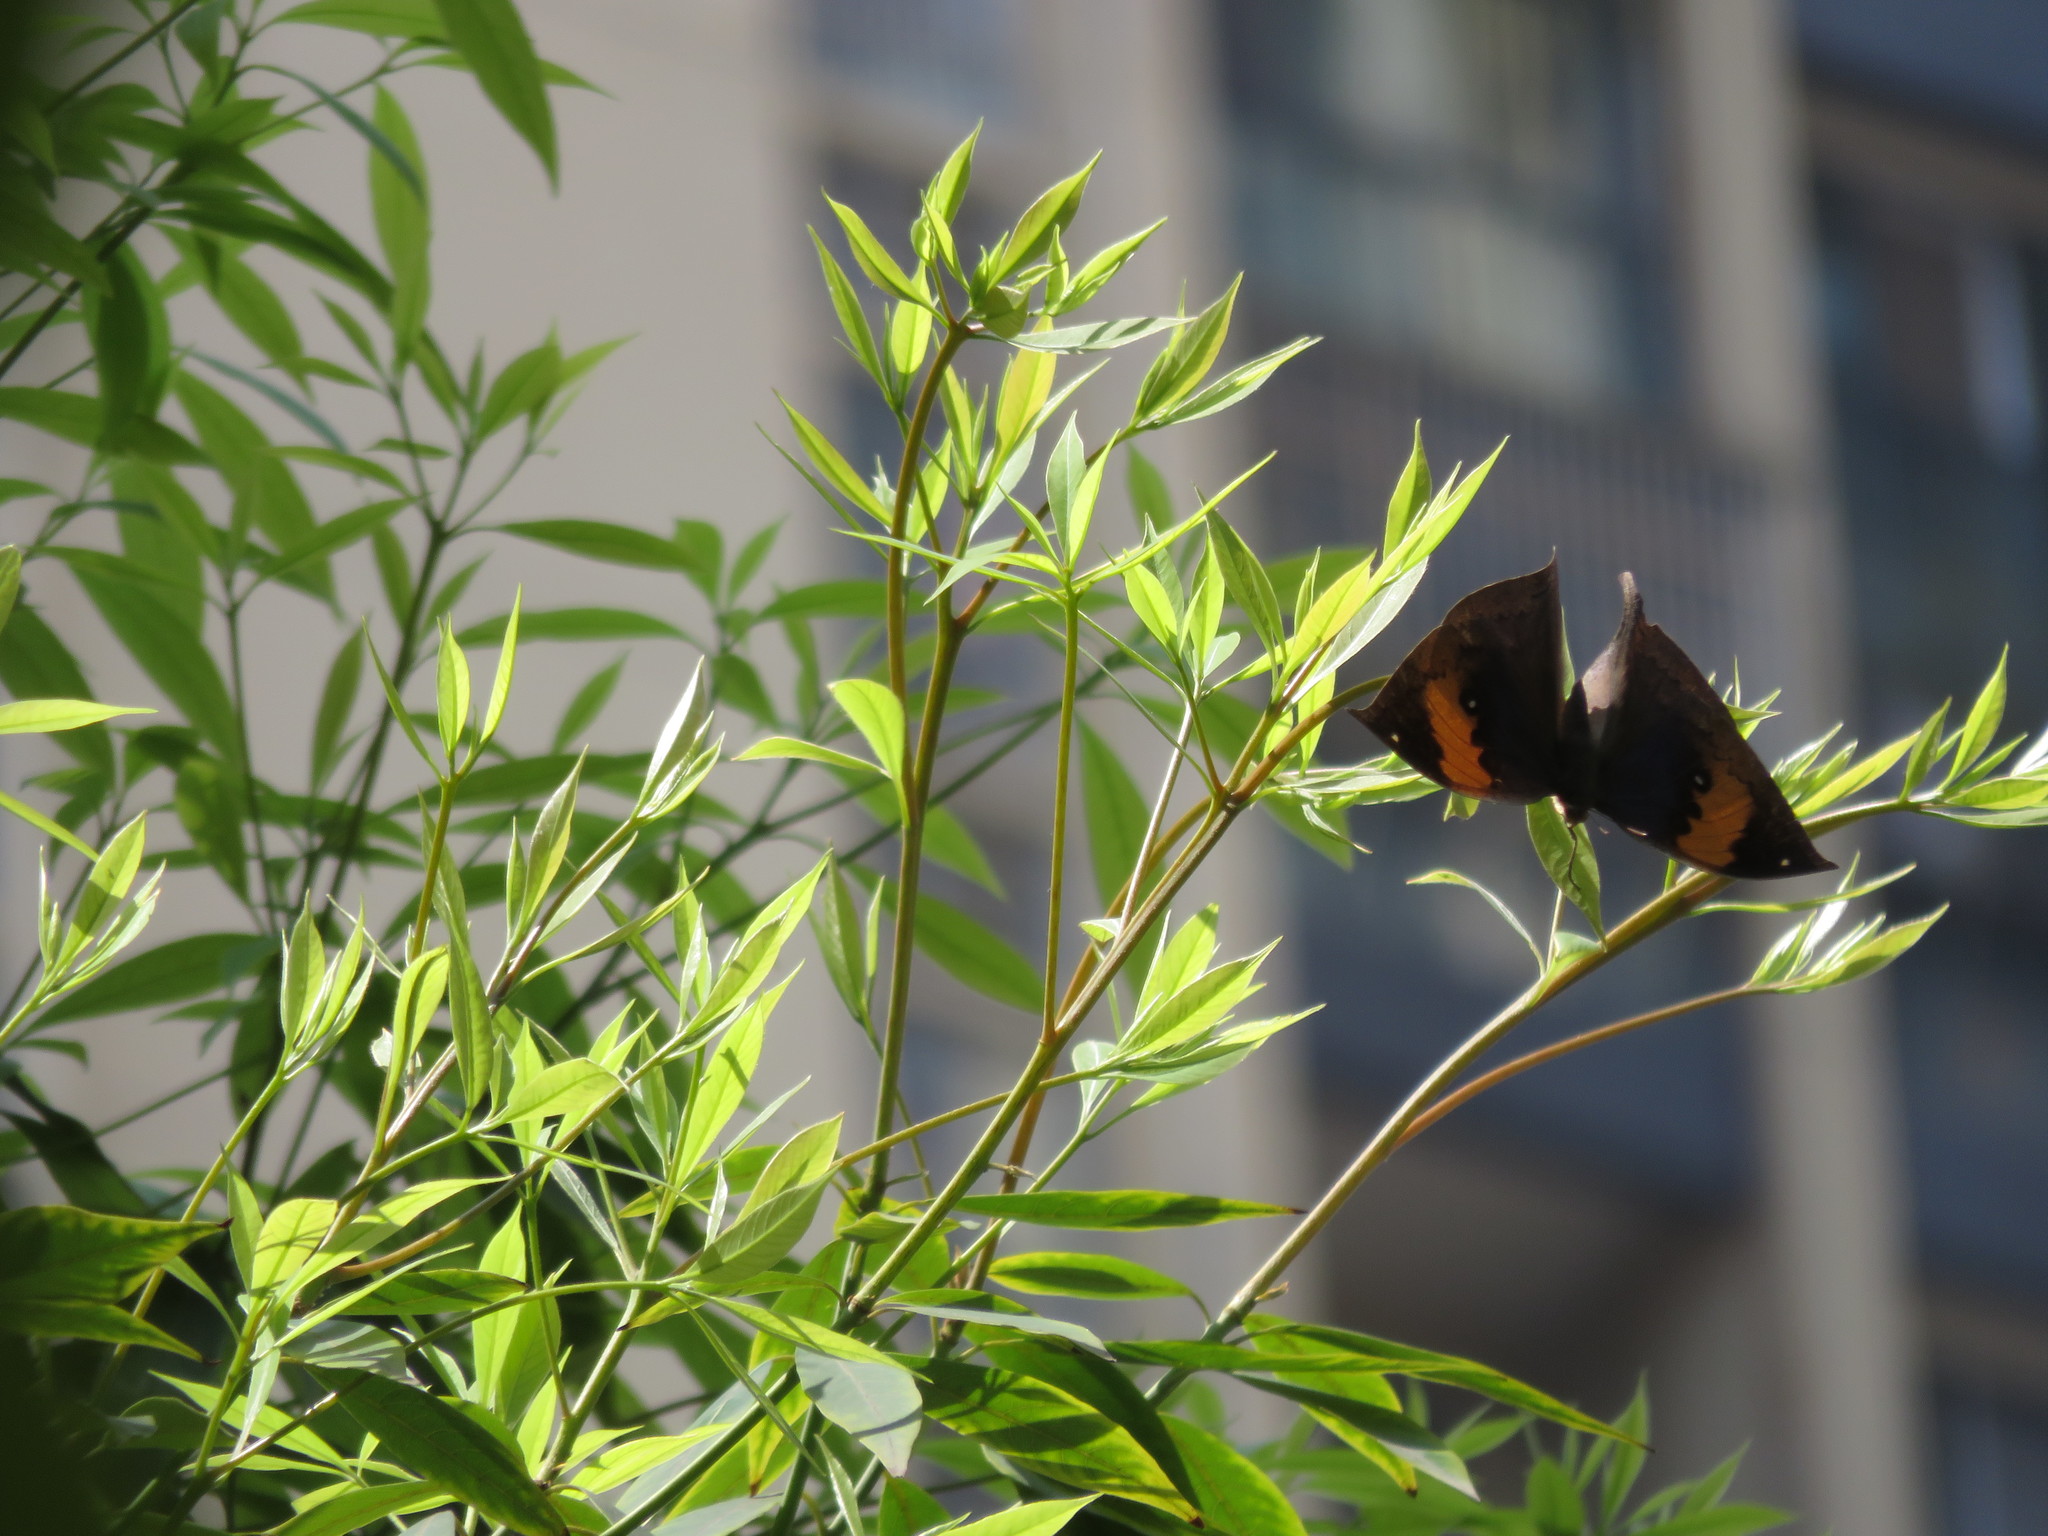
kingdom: Animalia
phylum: Arthropoda
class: Insecta
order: Lepidoptera
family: Nymphalidae
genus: Kallima
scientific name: Kallima inachus
